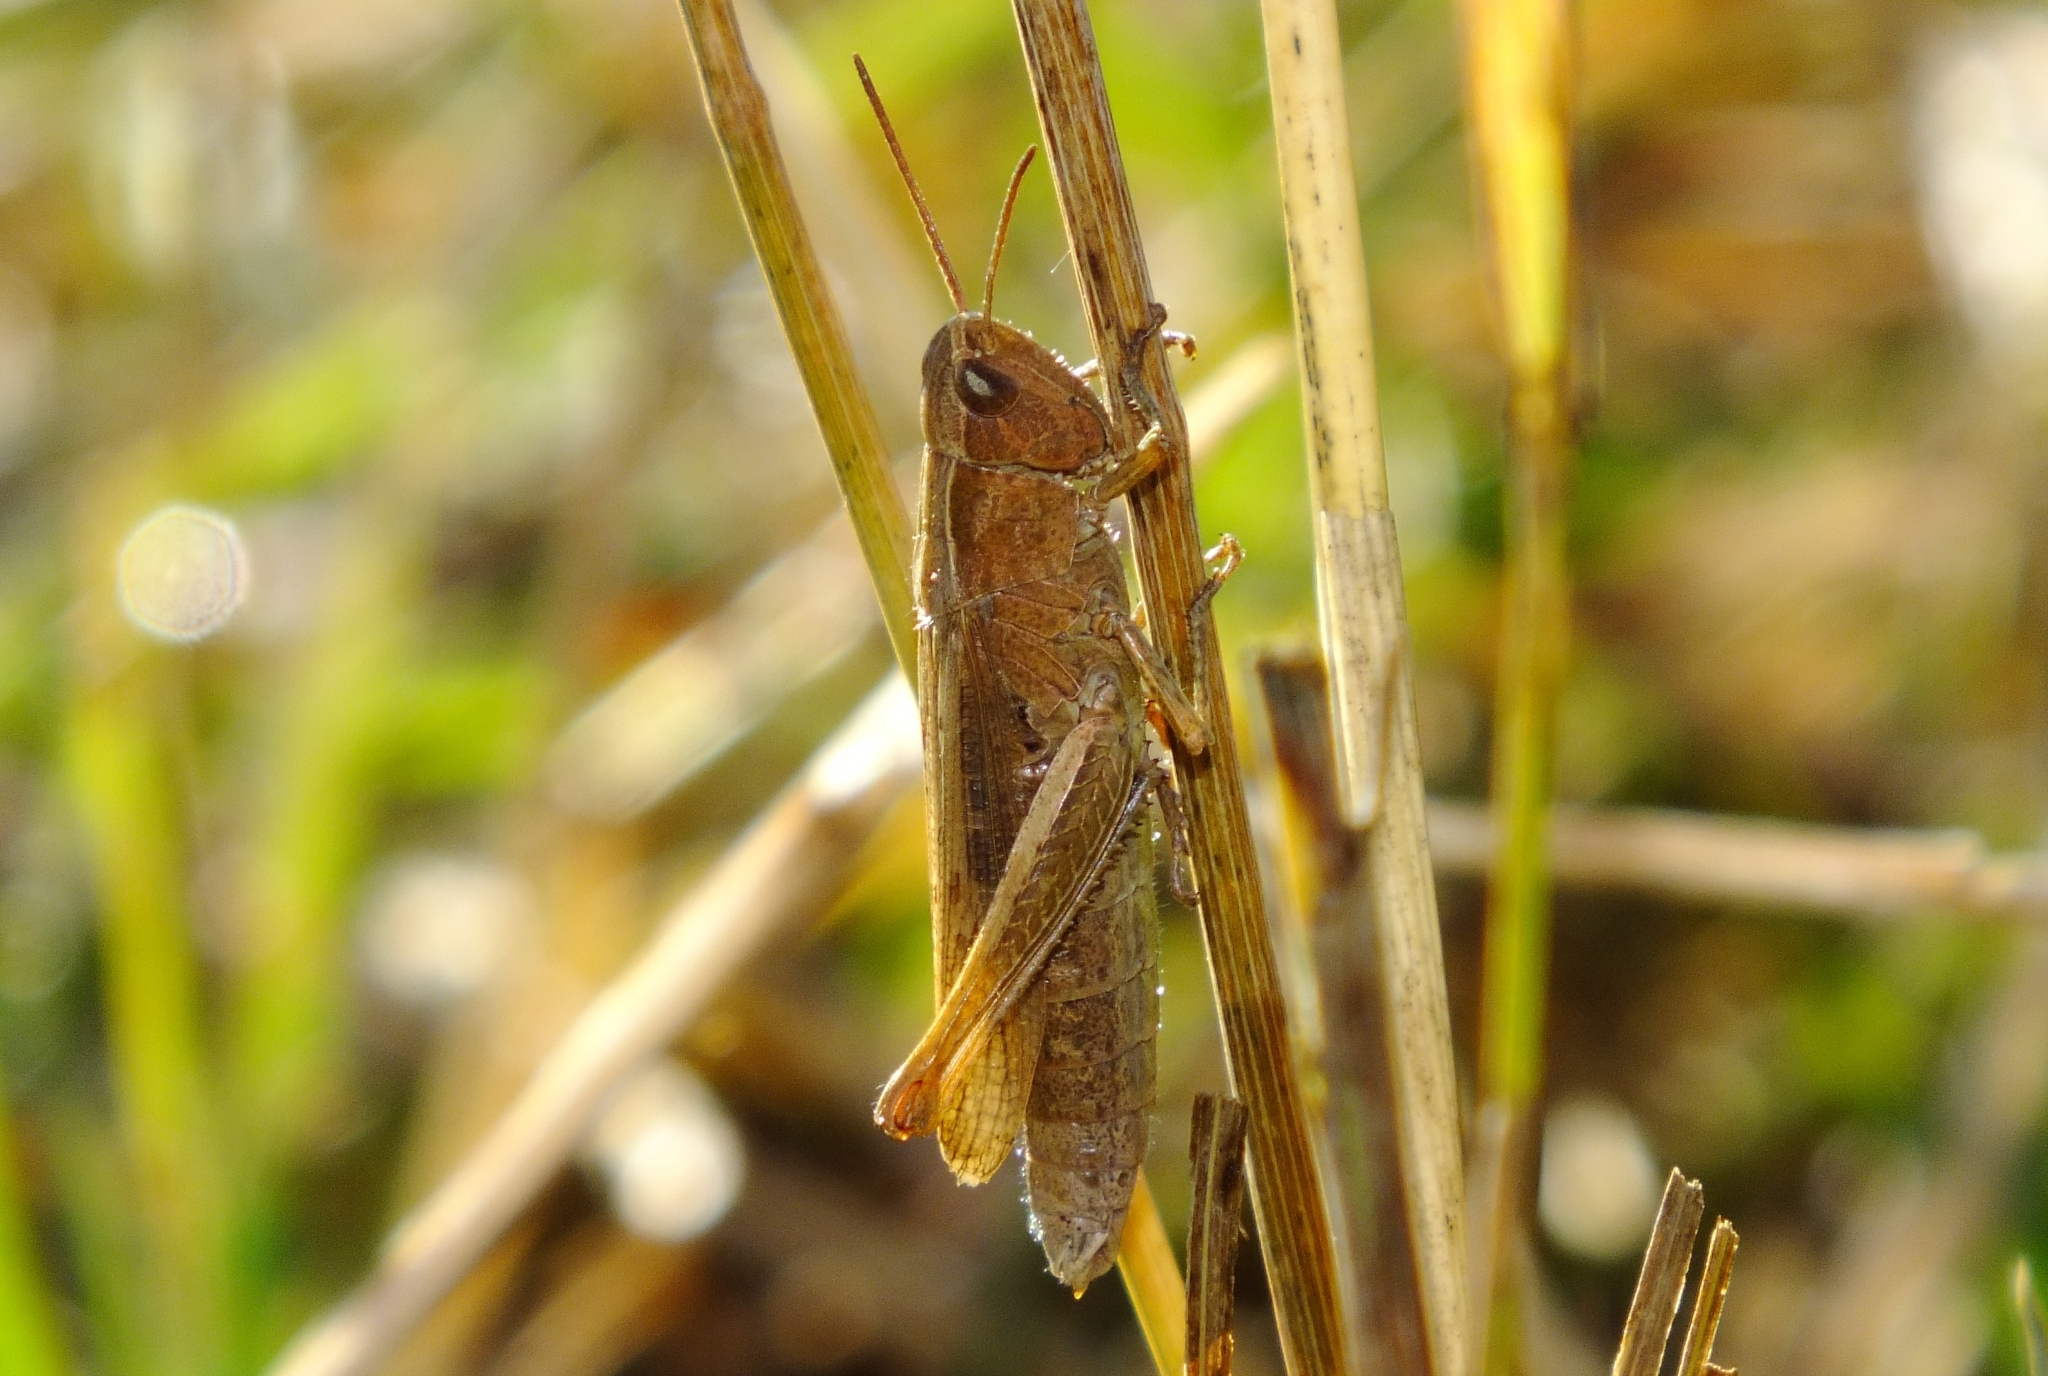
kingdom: Animalia
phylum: Arthropoda
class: Insecta
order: Orthoptera
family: Acrididae
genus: Chorthippus
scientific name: Chorthippus dorsatus
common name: Steppe grasshopper
